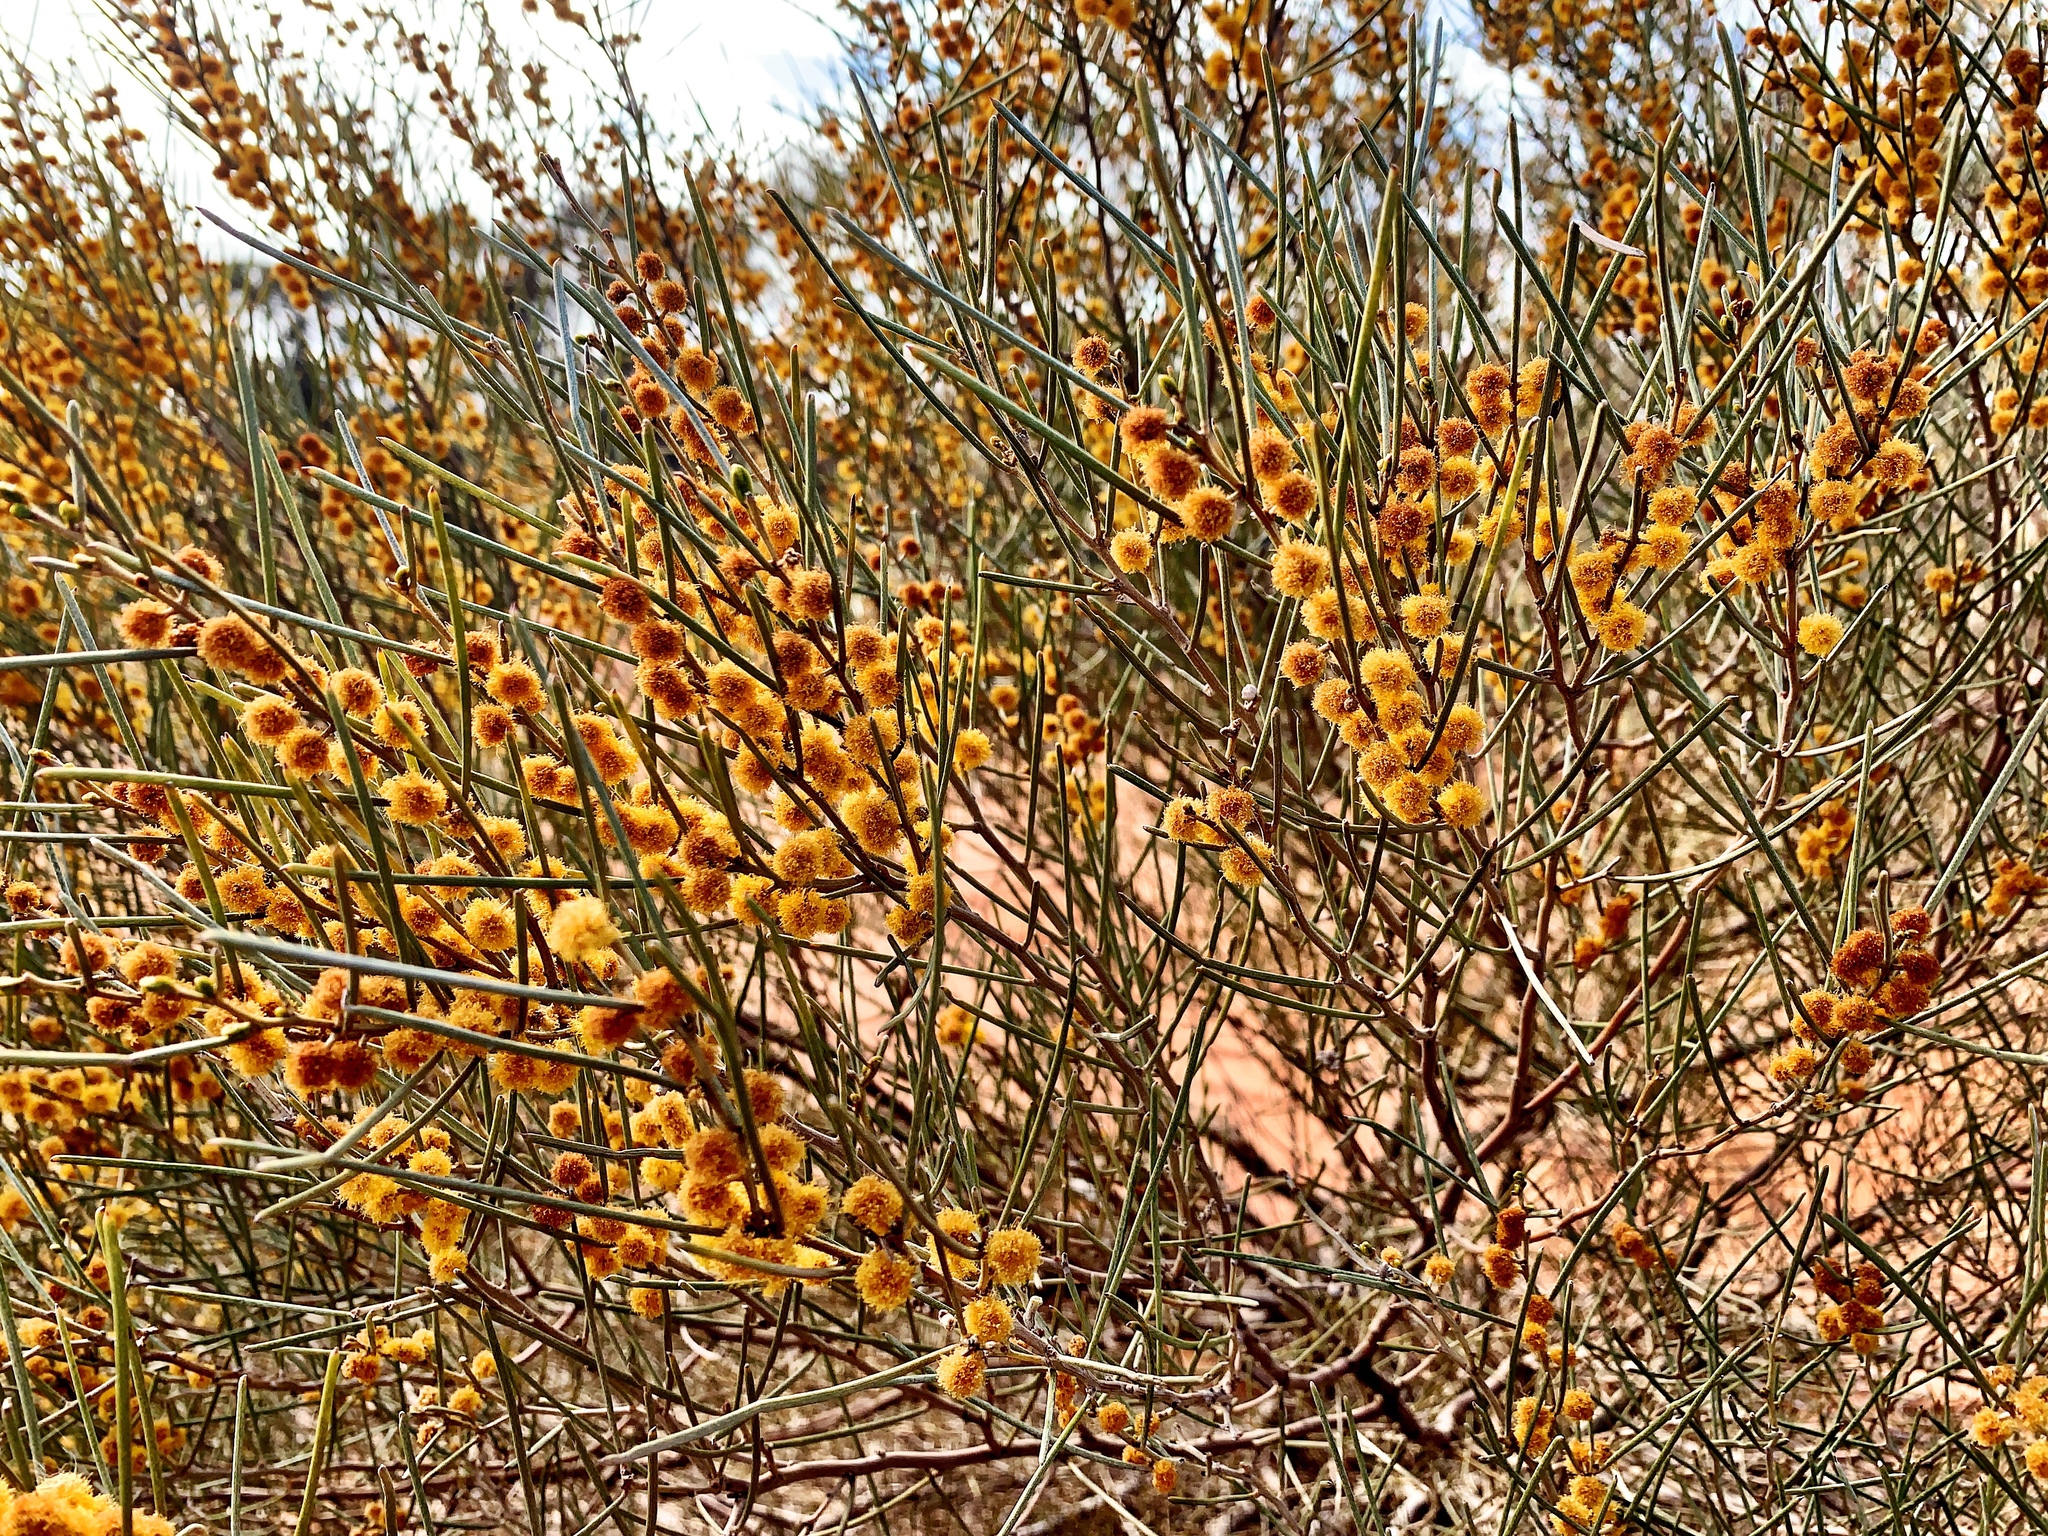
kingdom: Plantae
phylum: Tracheophyta
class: Magnoliopsida
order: Fabales
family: Fabaceae
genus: Acacia
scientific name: Acacia rigens
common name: Nealie
